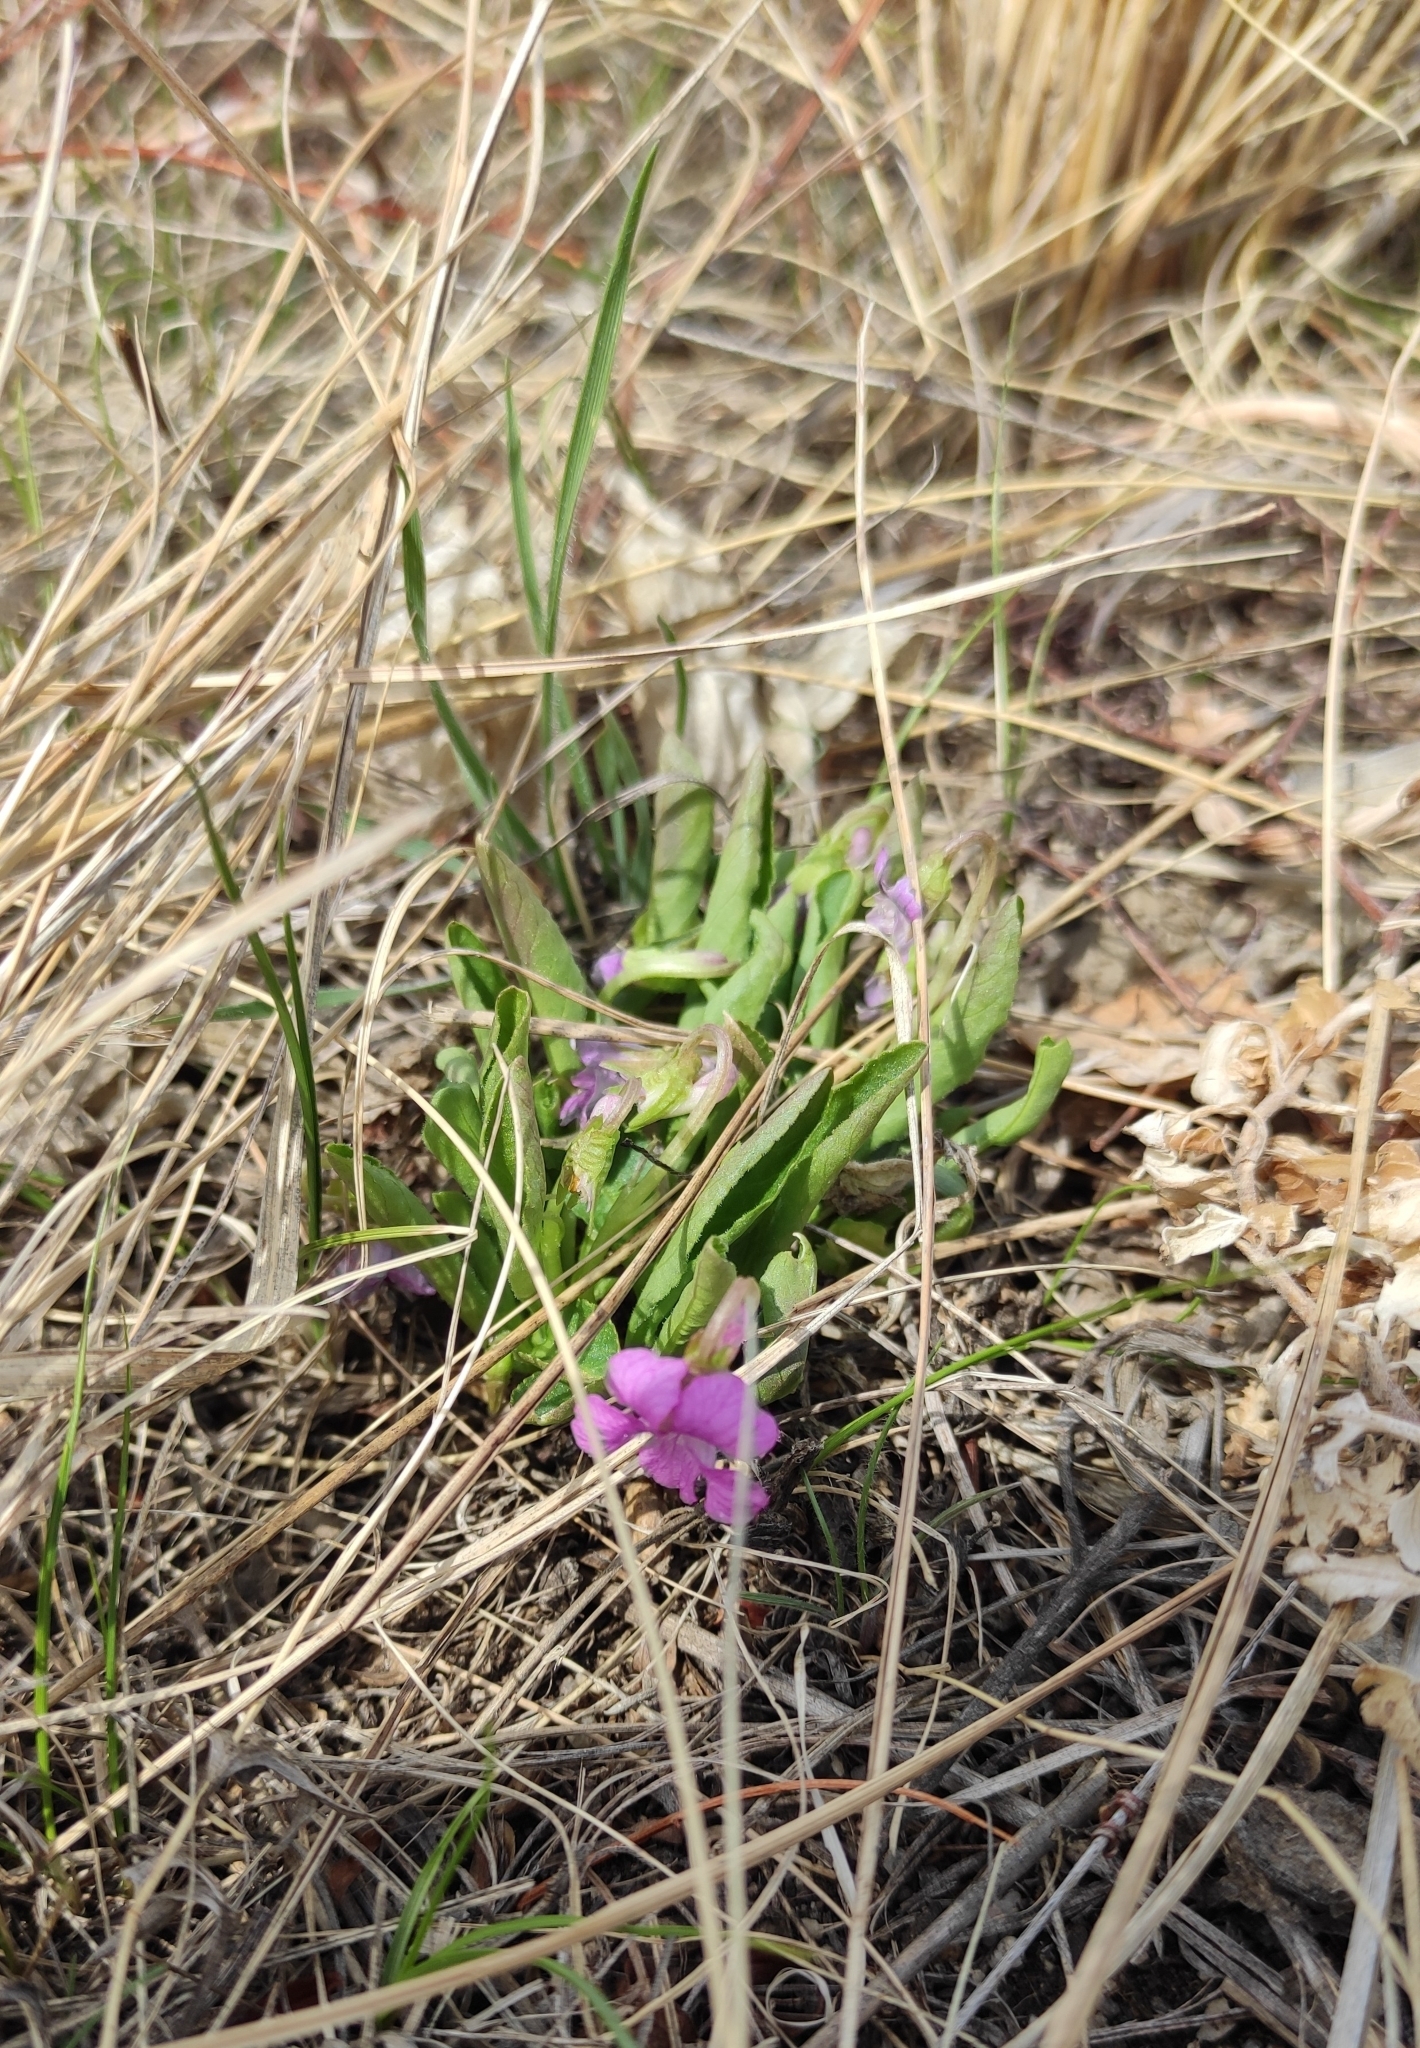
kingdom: Plantae
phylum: Tracheophyta
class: Magnoliopsida
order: Malpighiales
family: Violaceae
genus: Viola
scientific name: Viola gmeliniana
